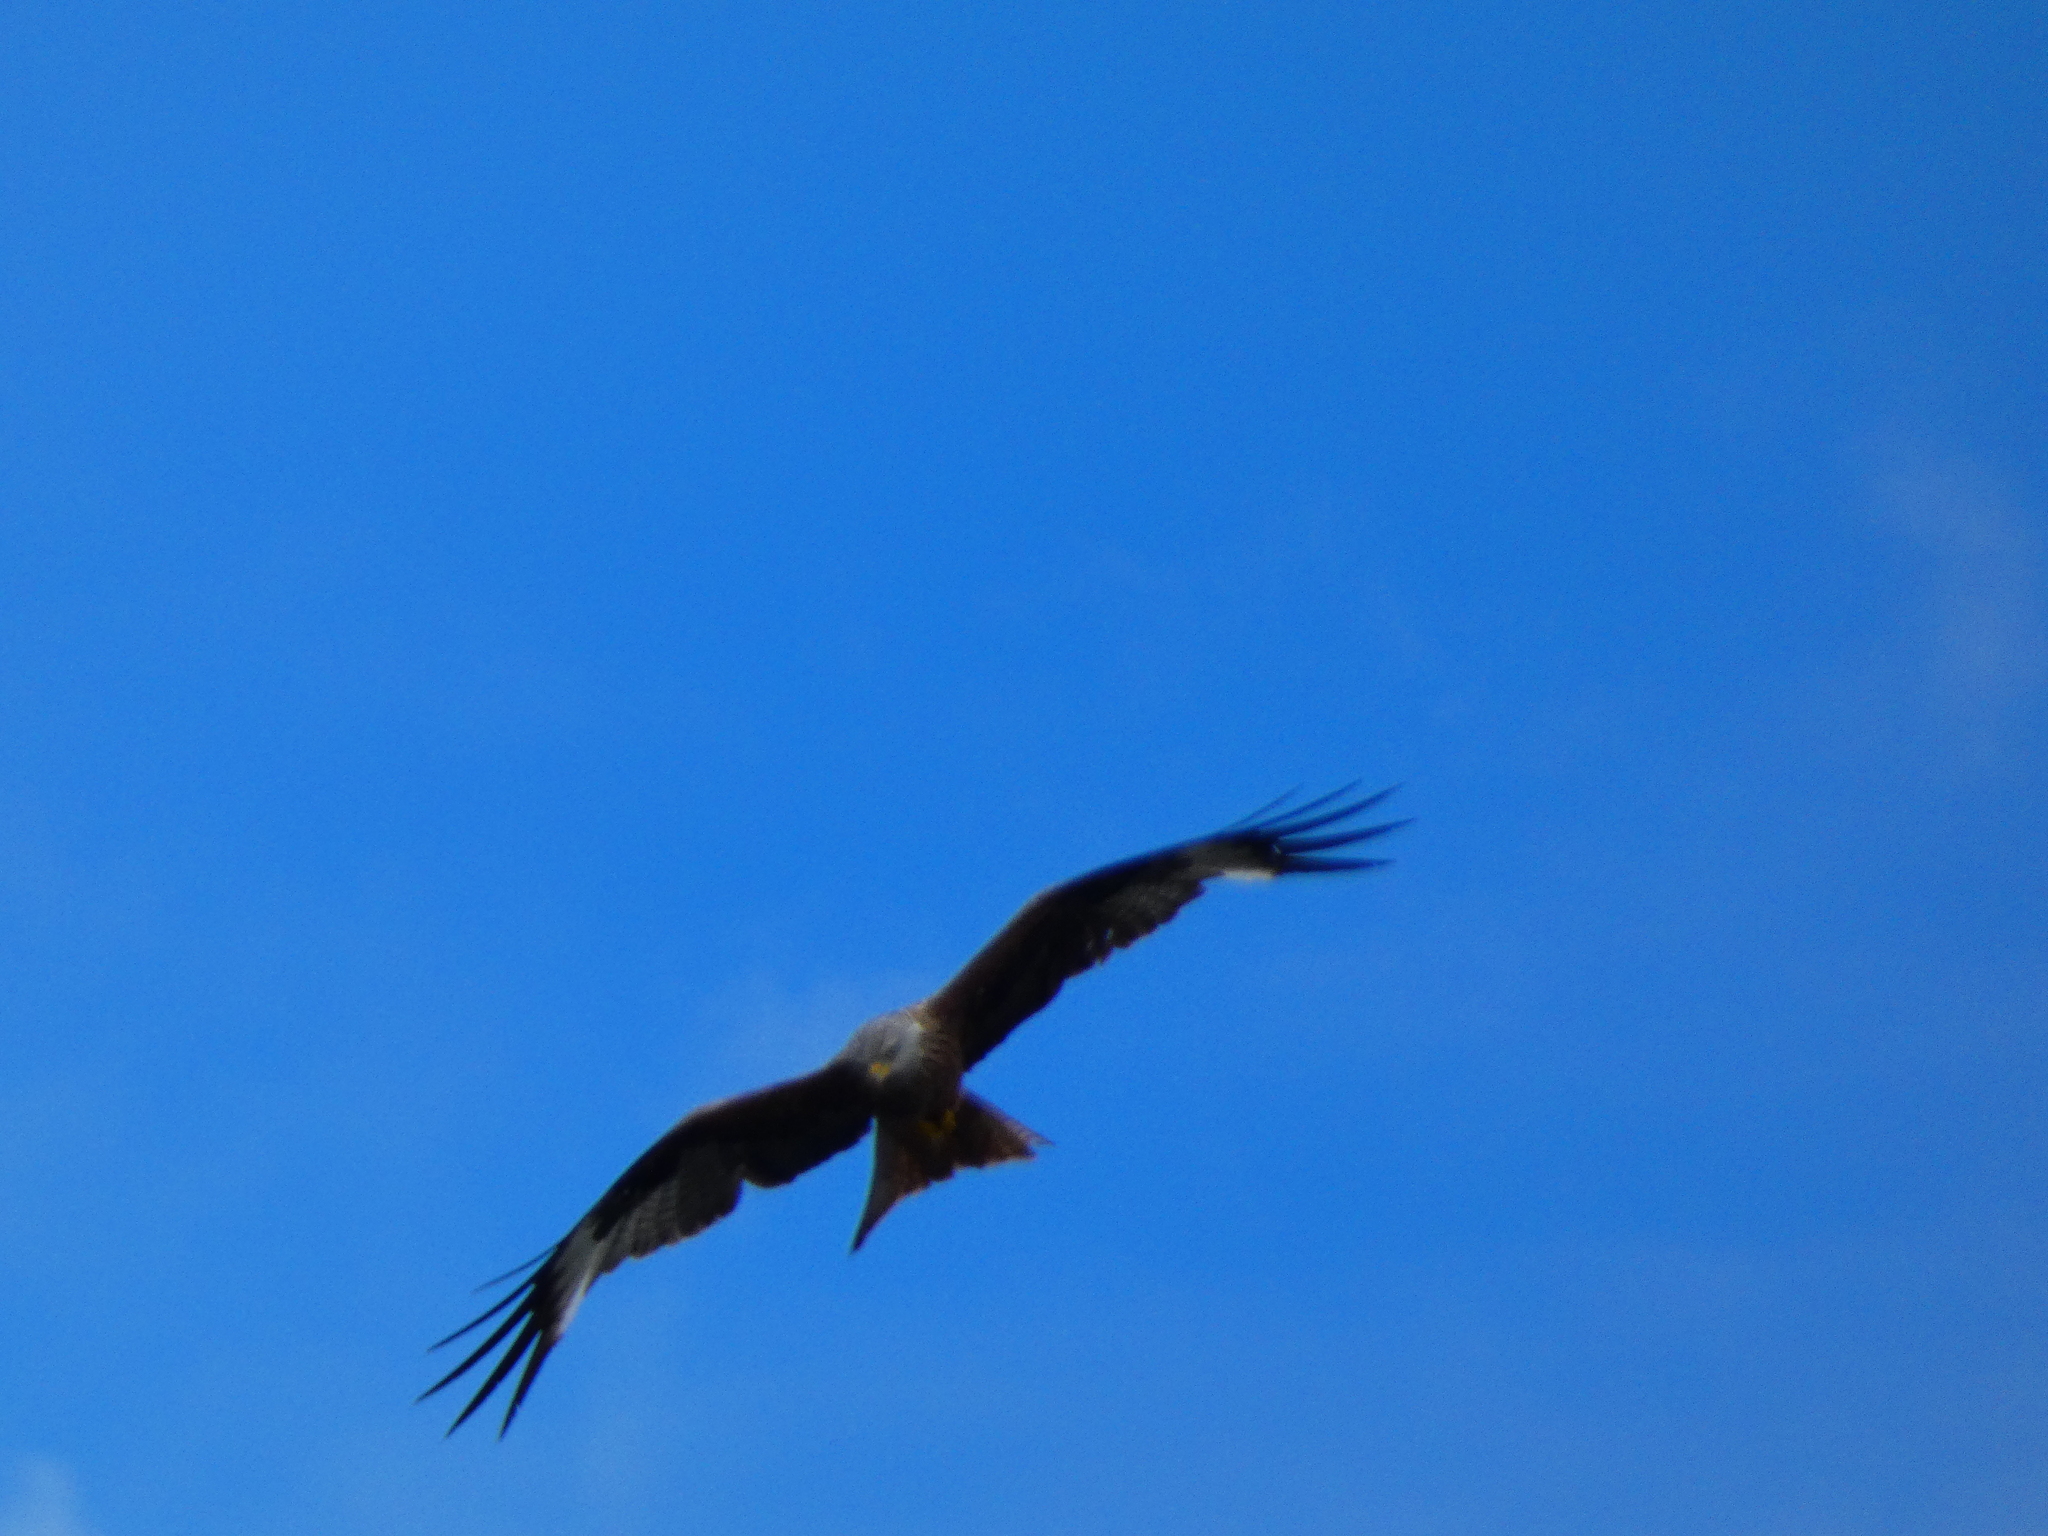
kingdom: Animalia
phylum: Chordata
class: Aves
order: Accipitriformes
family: Accipitridae
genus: Milvus
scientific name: Milvus milvus
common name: Red kite
